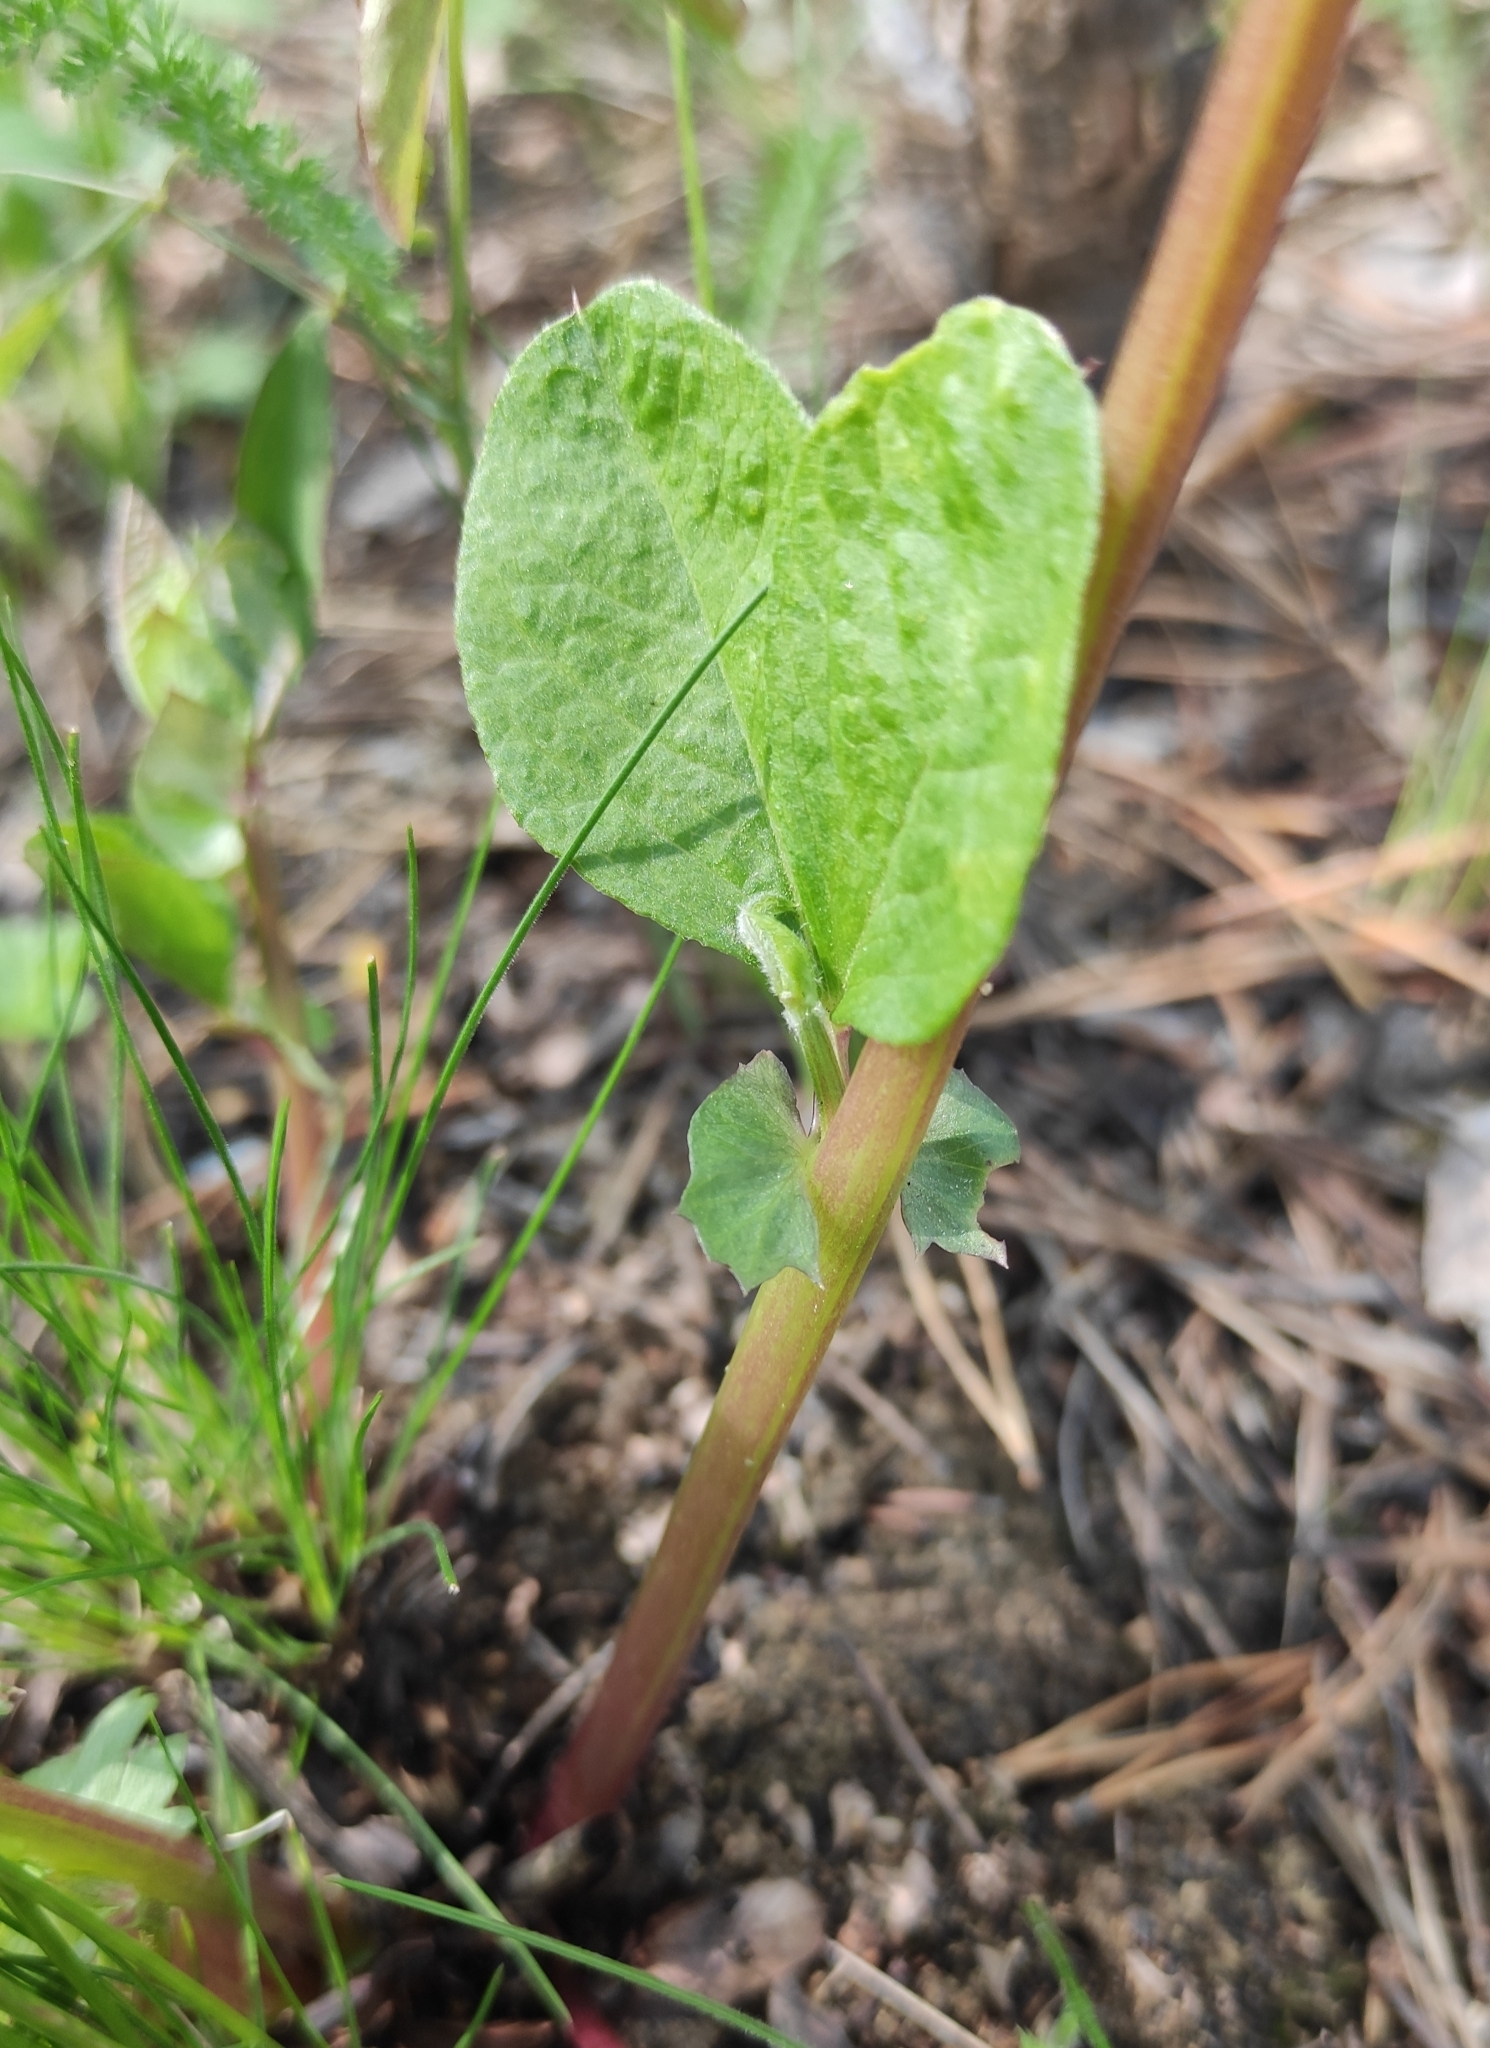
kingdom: Plantae
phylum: Tracheophyta
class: Magnoliopsida
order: Fabales
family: Fabaceae
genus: Vicia
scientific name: Vicia unijuga
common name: Two-leaf vetch
